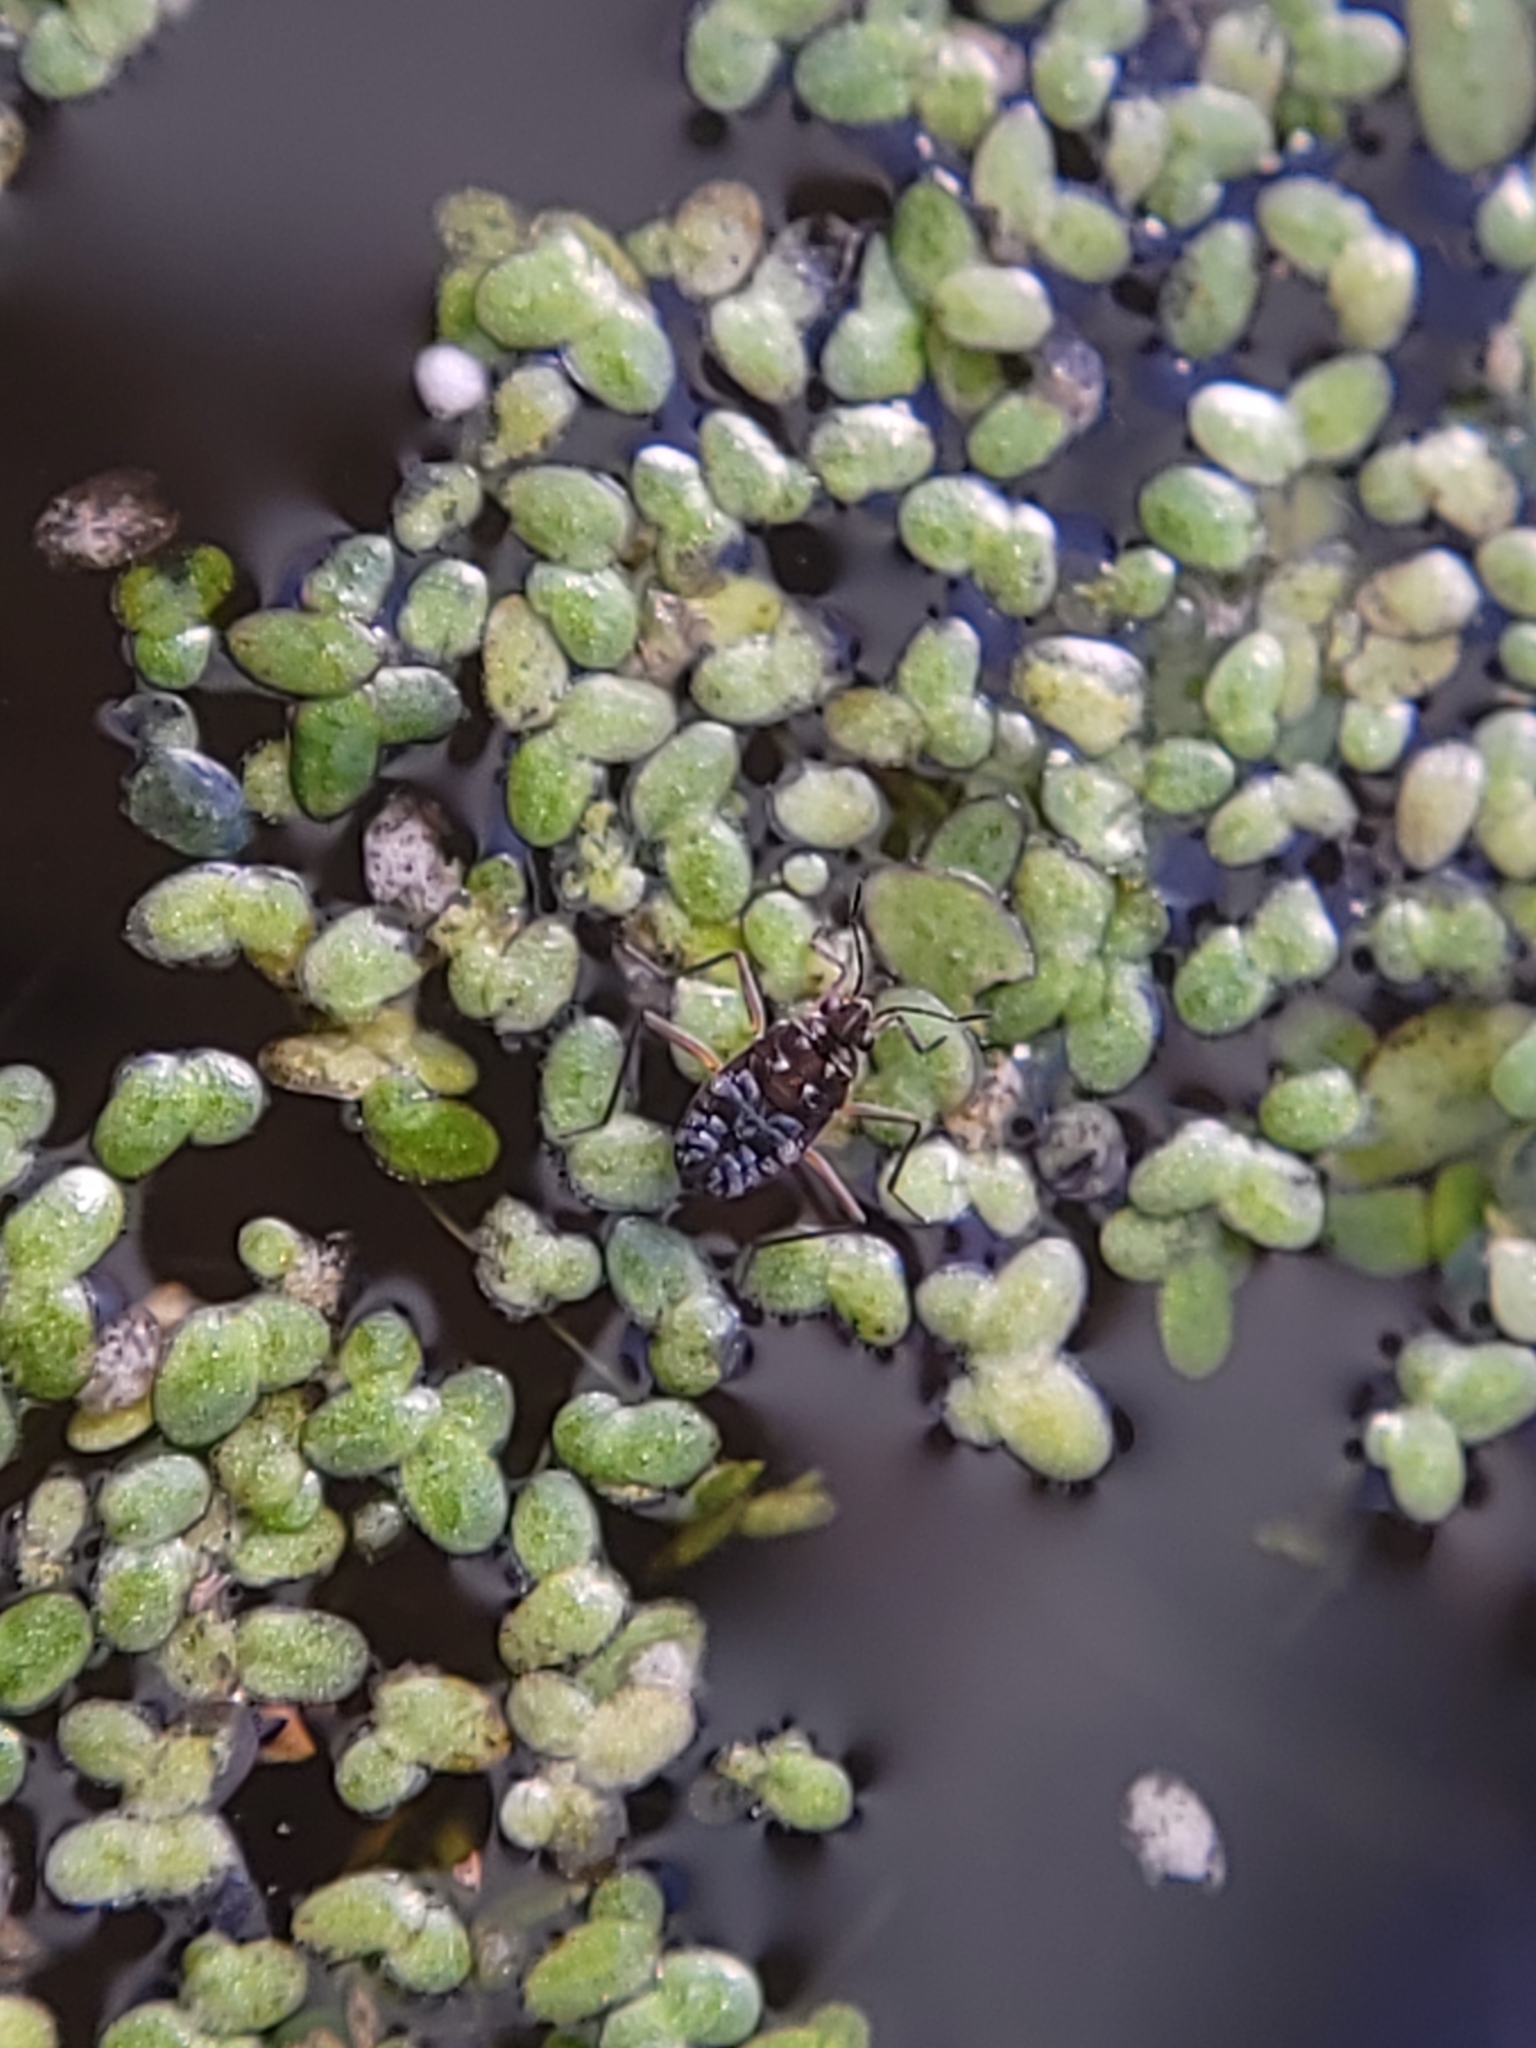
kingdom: Animalia
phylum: Arthropoda
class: Insecta
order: Hemiptera
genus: Kirkaldya
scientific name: Kirkaldya
